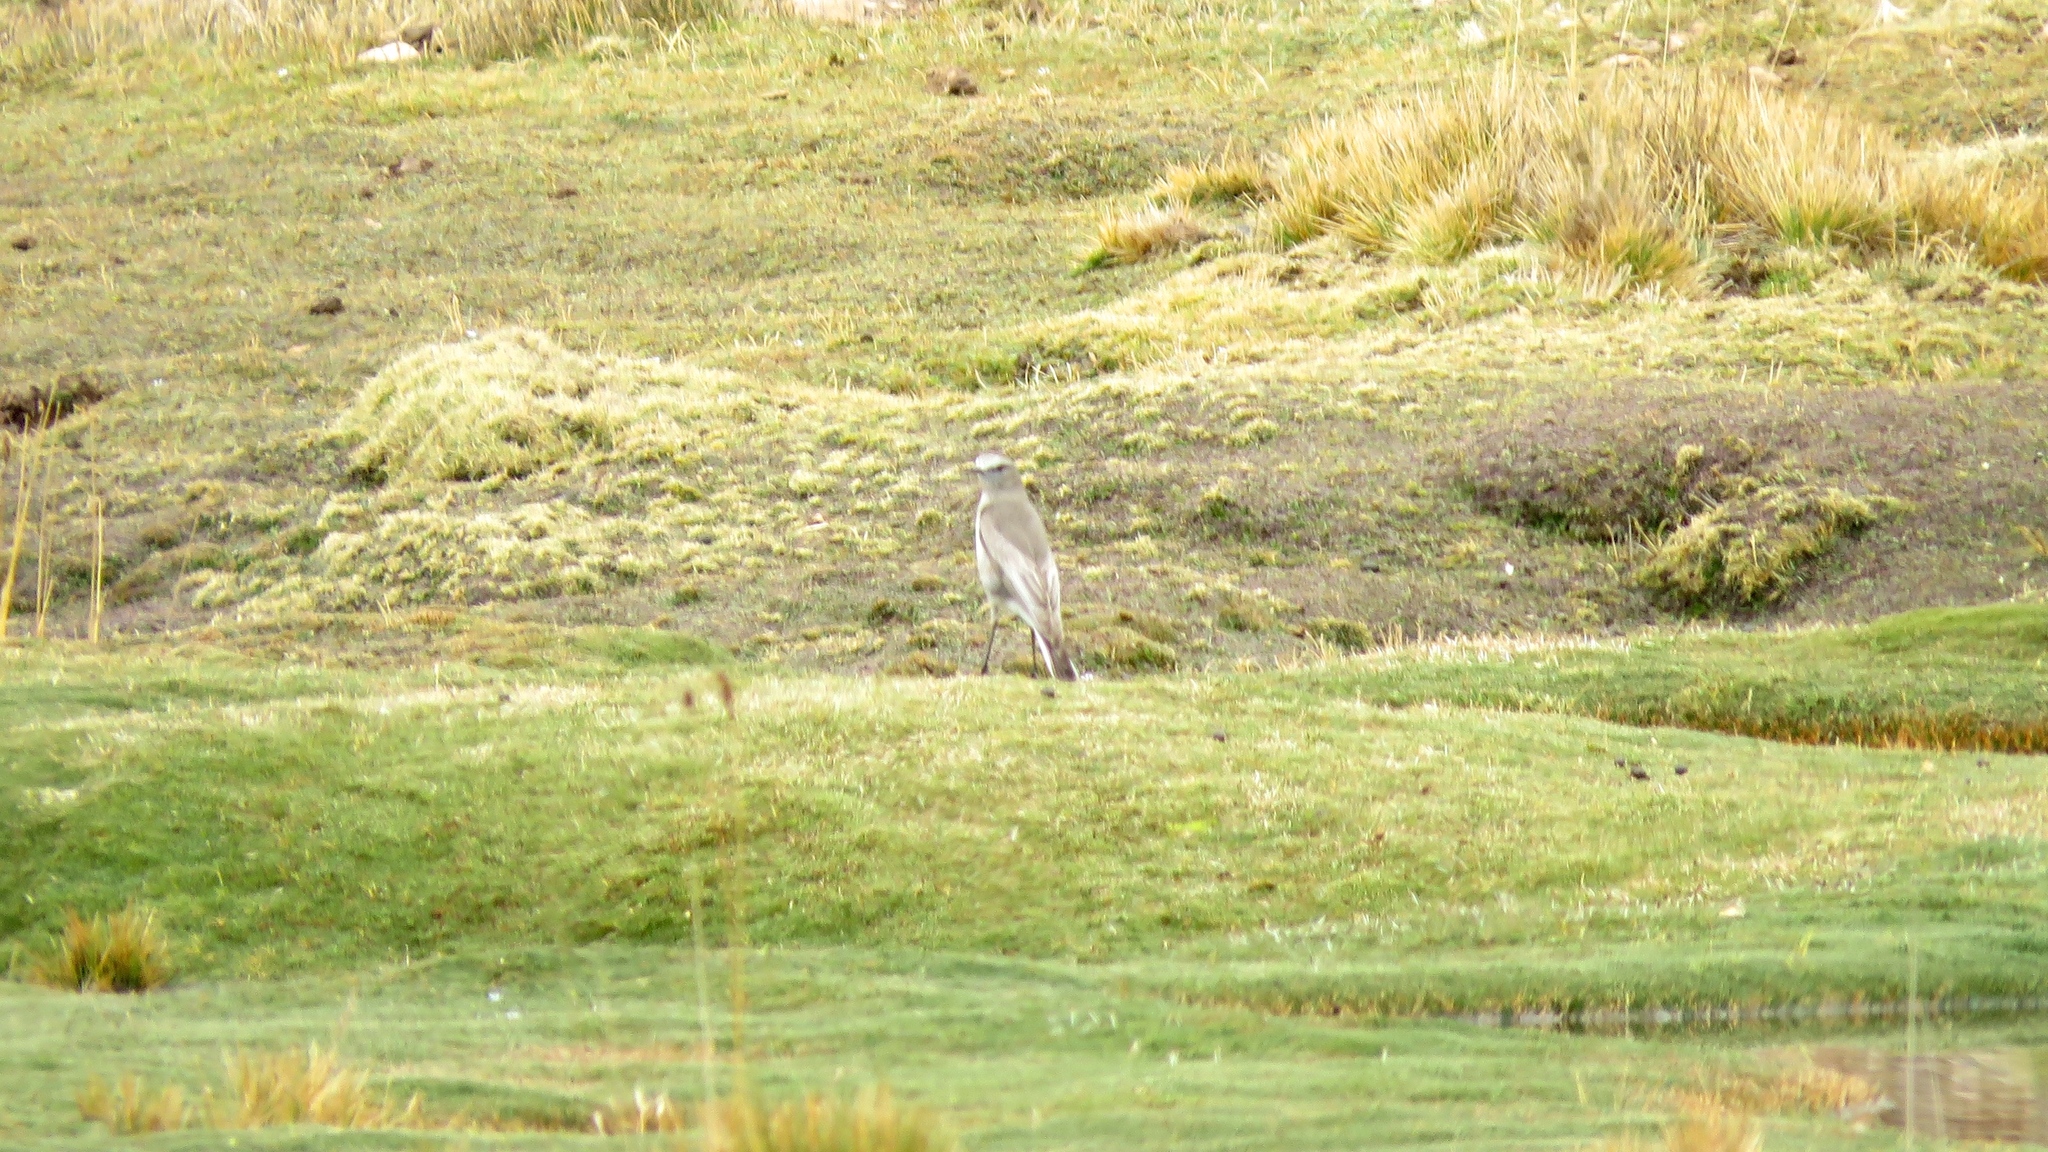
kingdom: Animalia
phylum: Chordata
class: Aves
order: Passeriformes
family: Tyrannidae
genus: Muscisaxicola
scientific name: Muscisaxicola albifrons
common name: White-fronted ground tyrant
